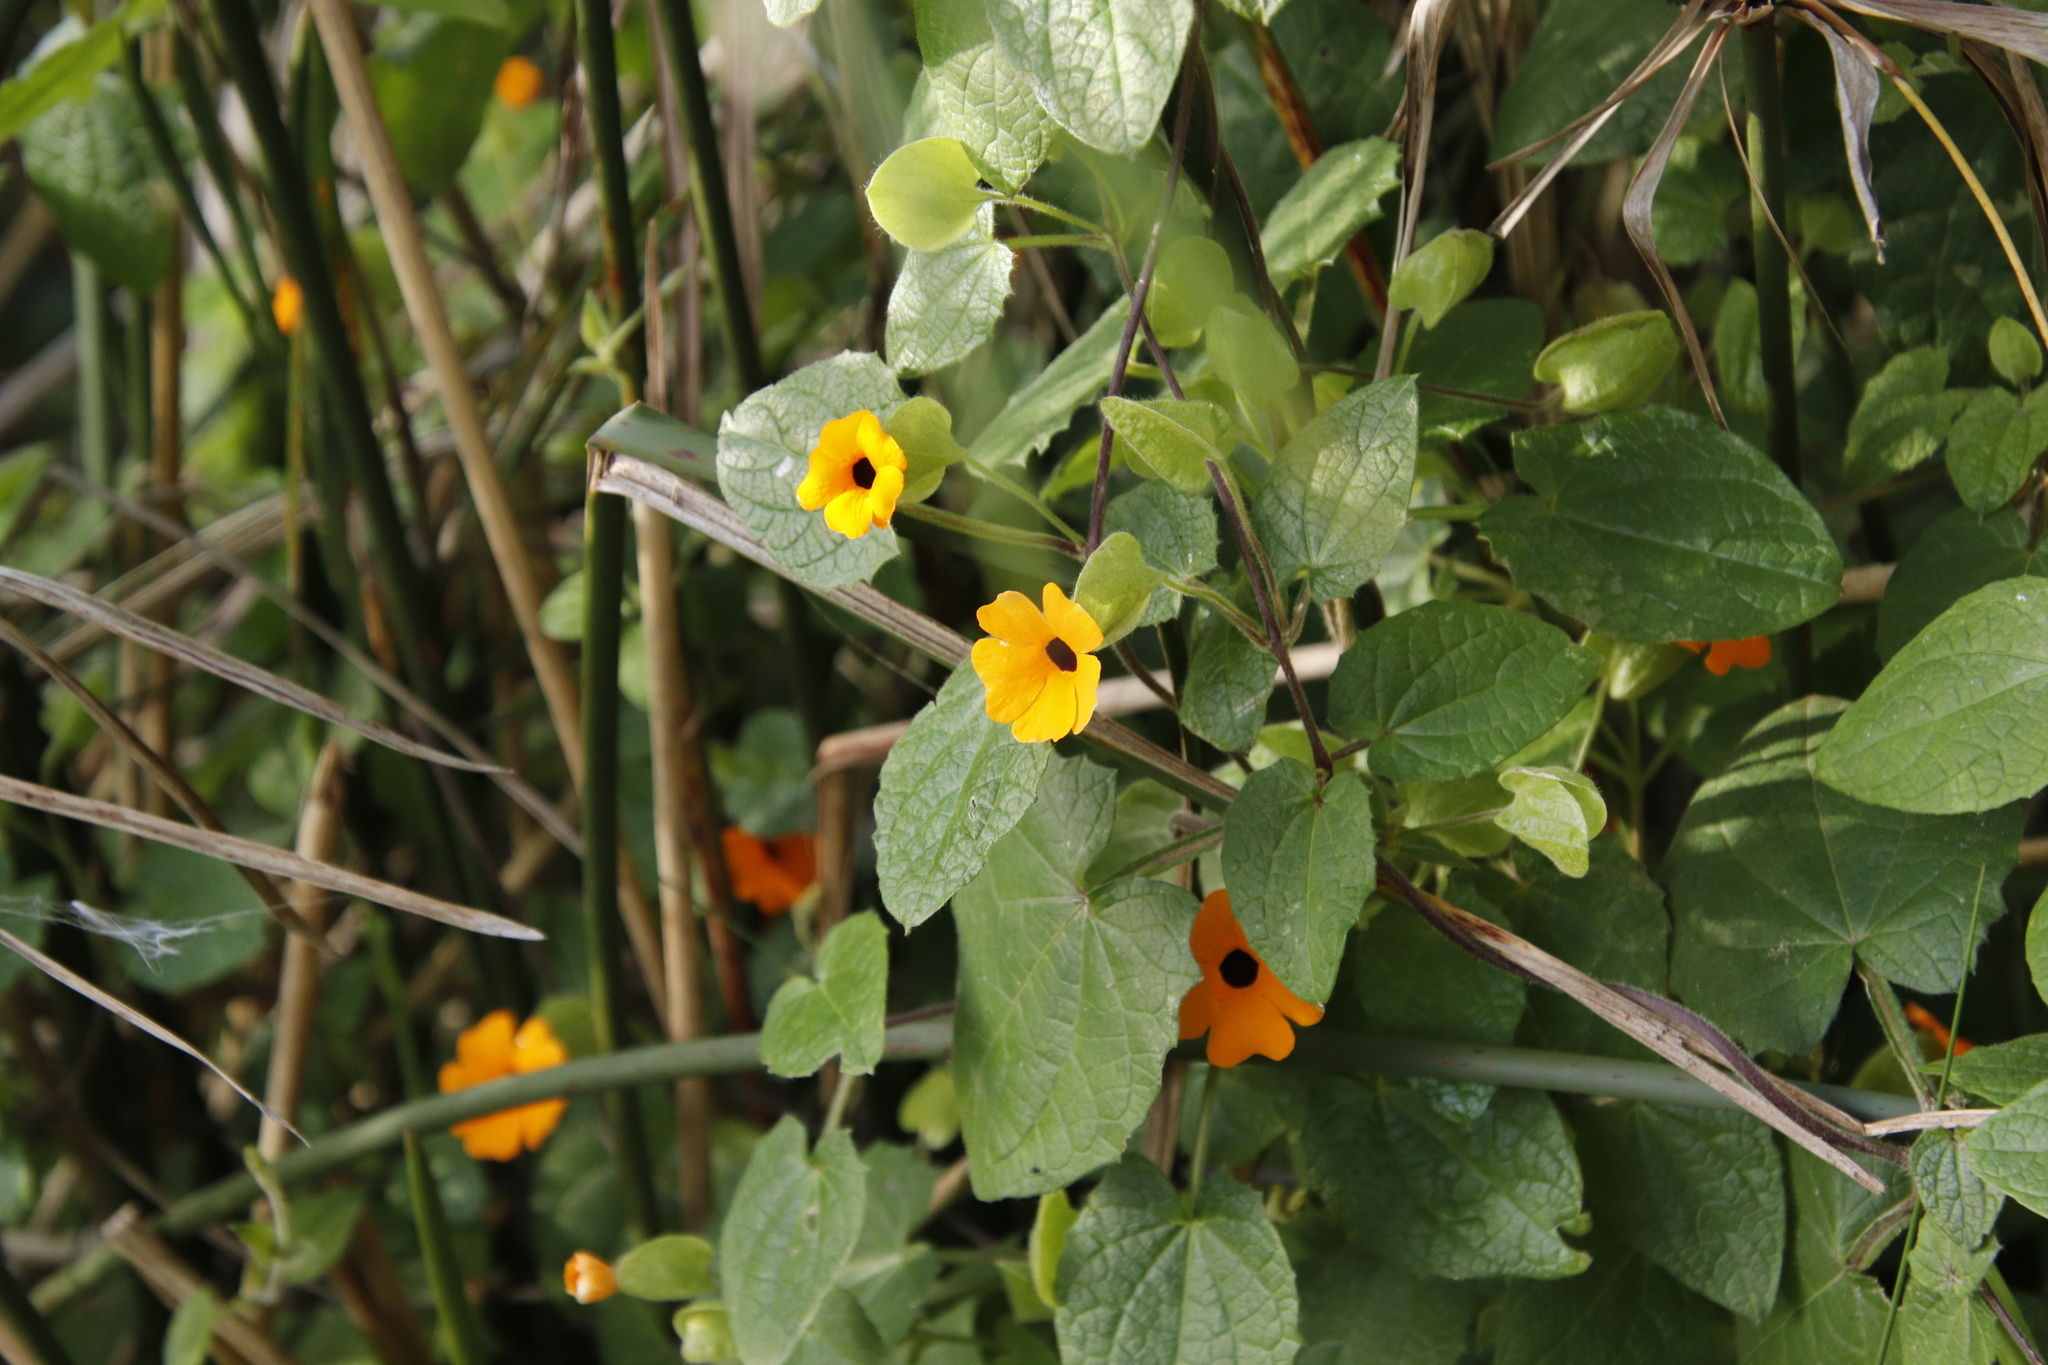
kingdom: Plantae
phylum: Tracheophyta
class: Magnoliopsida
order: Lamiales
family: Acanthaceae
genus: Thunbergia
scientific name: Thunbergia alata
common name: Blackeyed susan vine
